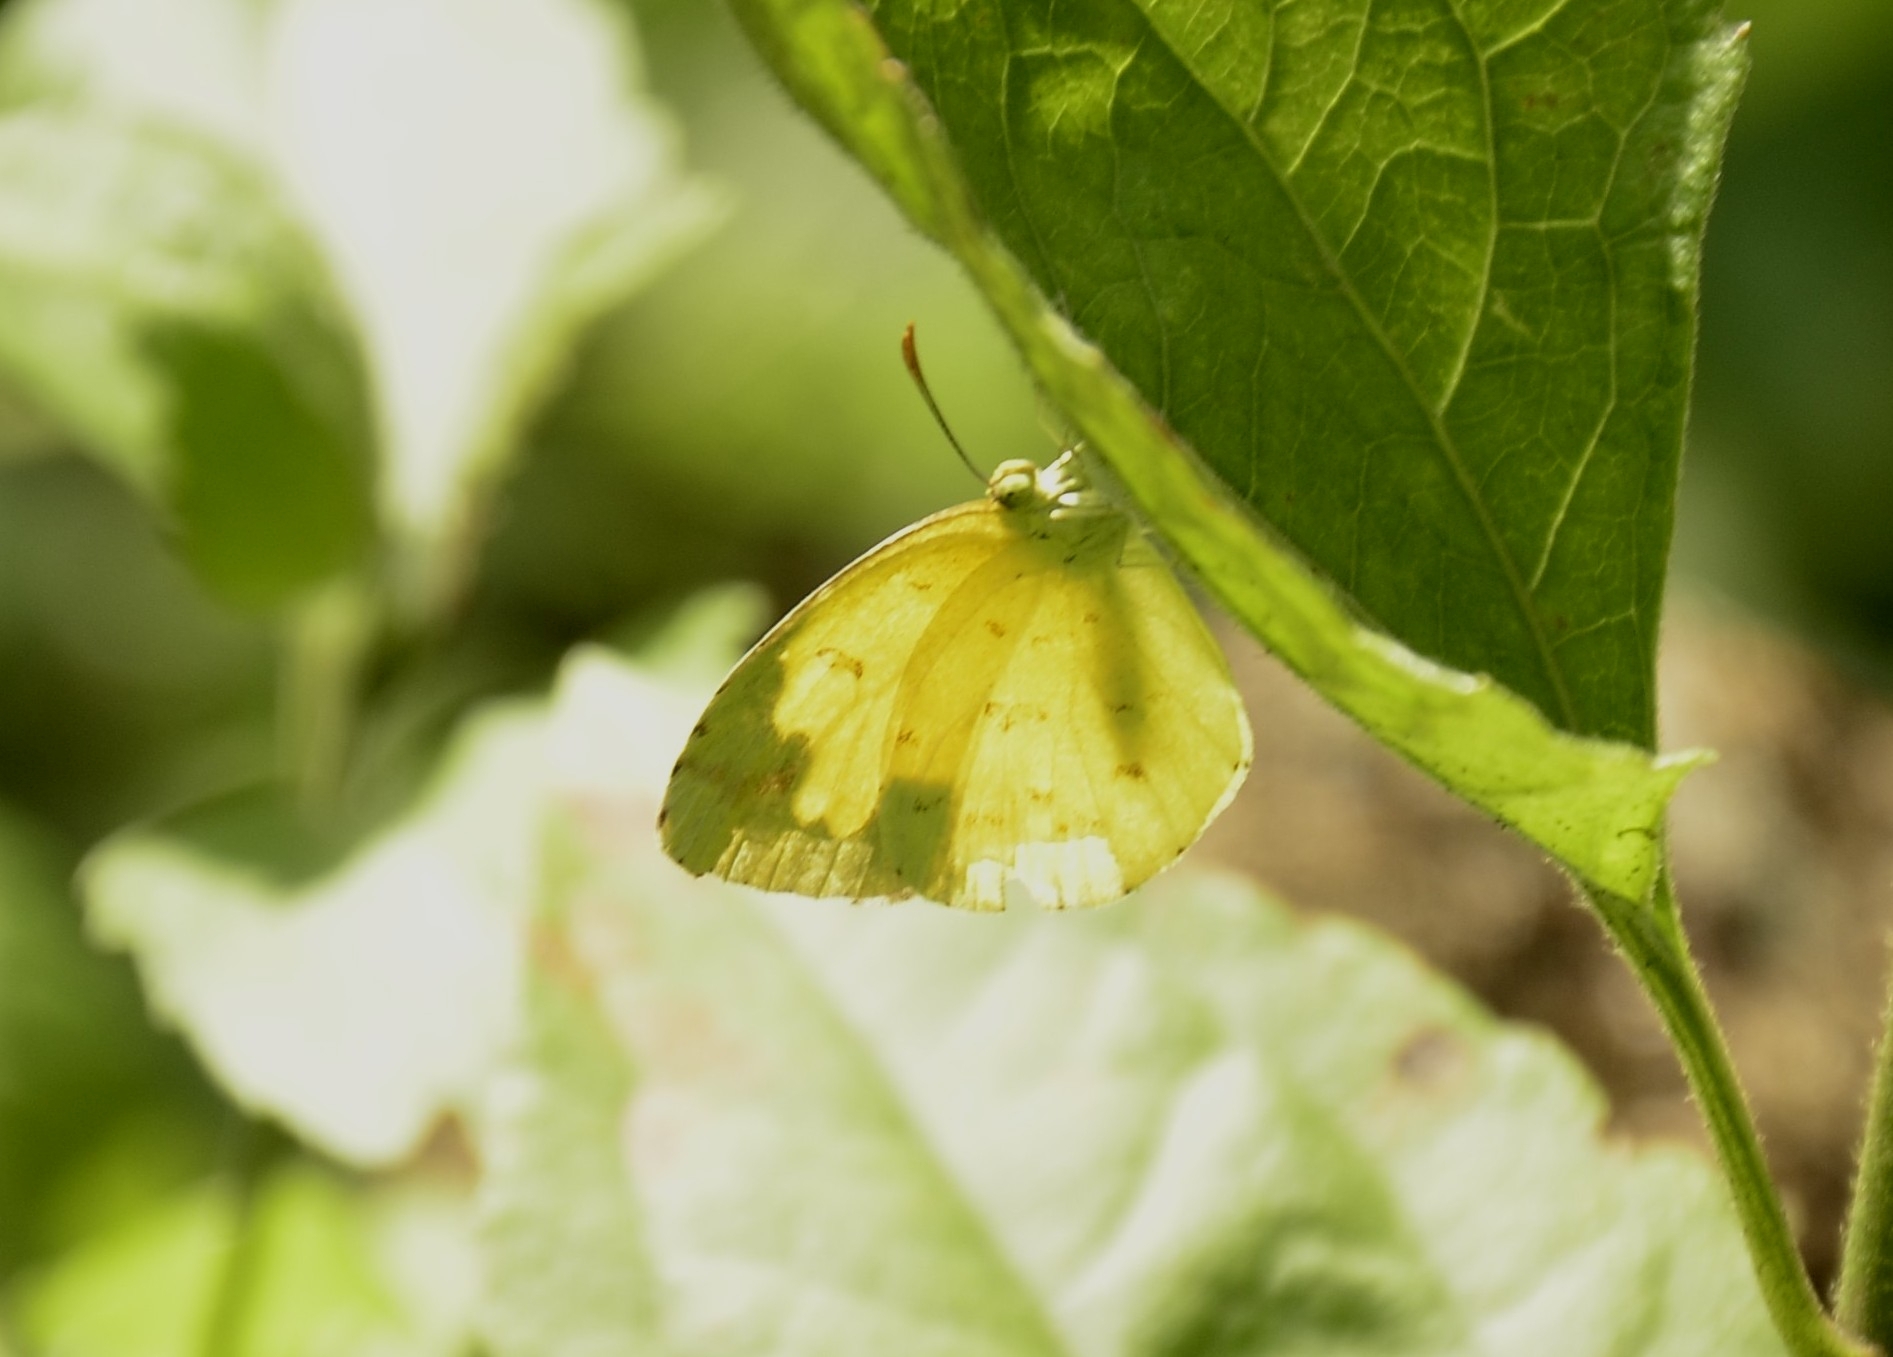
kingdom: Animalia
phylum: Arthropoda
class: Insecta
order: Lepidoptera
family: Pieridae
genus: Eurema
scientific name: Eurema hecabe
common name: Pale grass yellow
